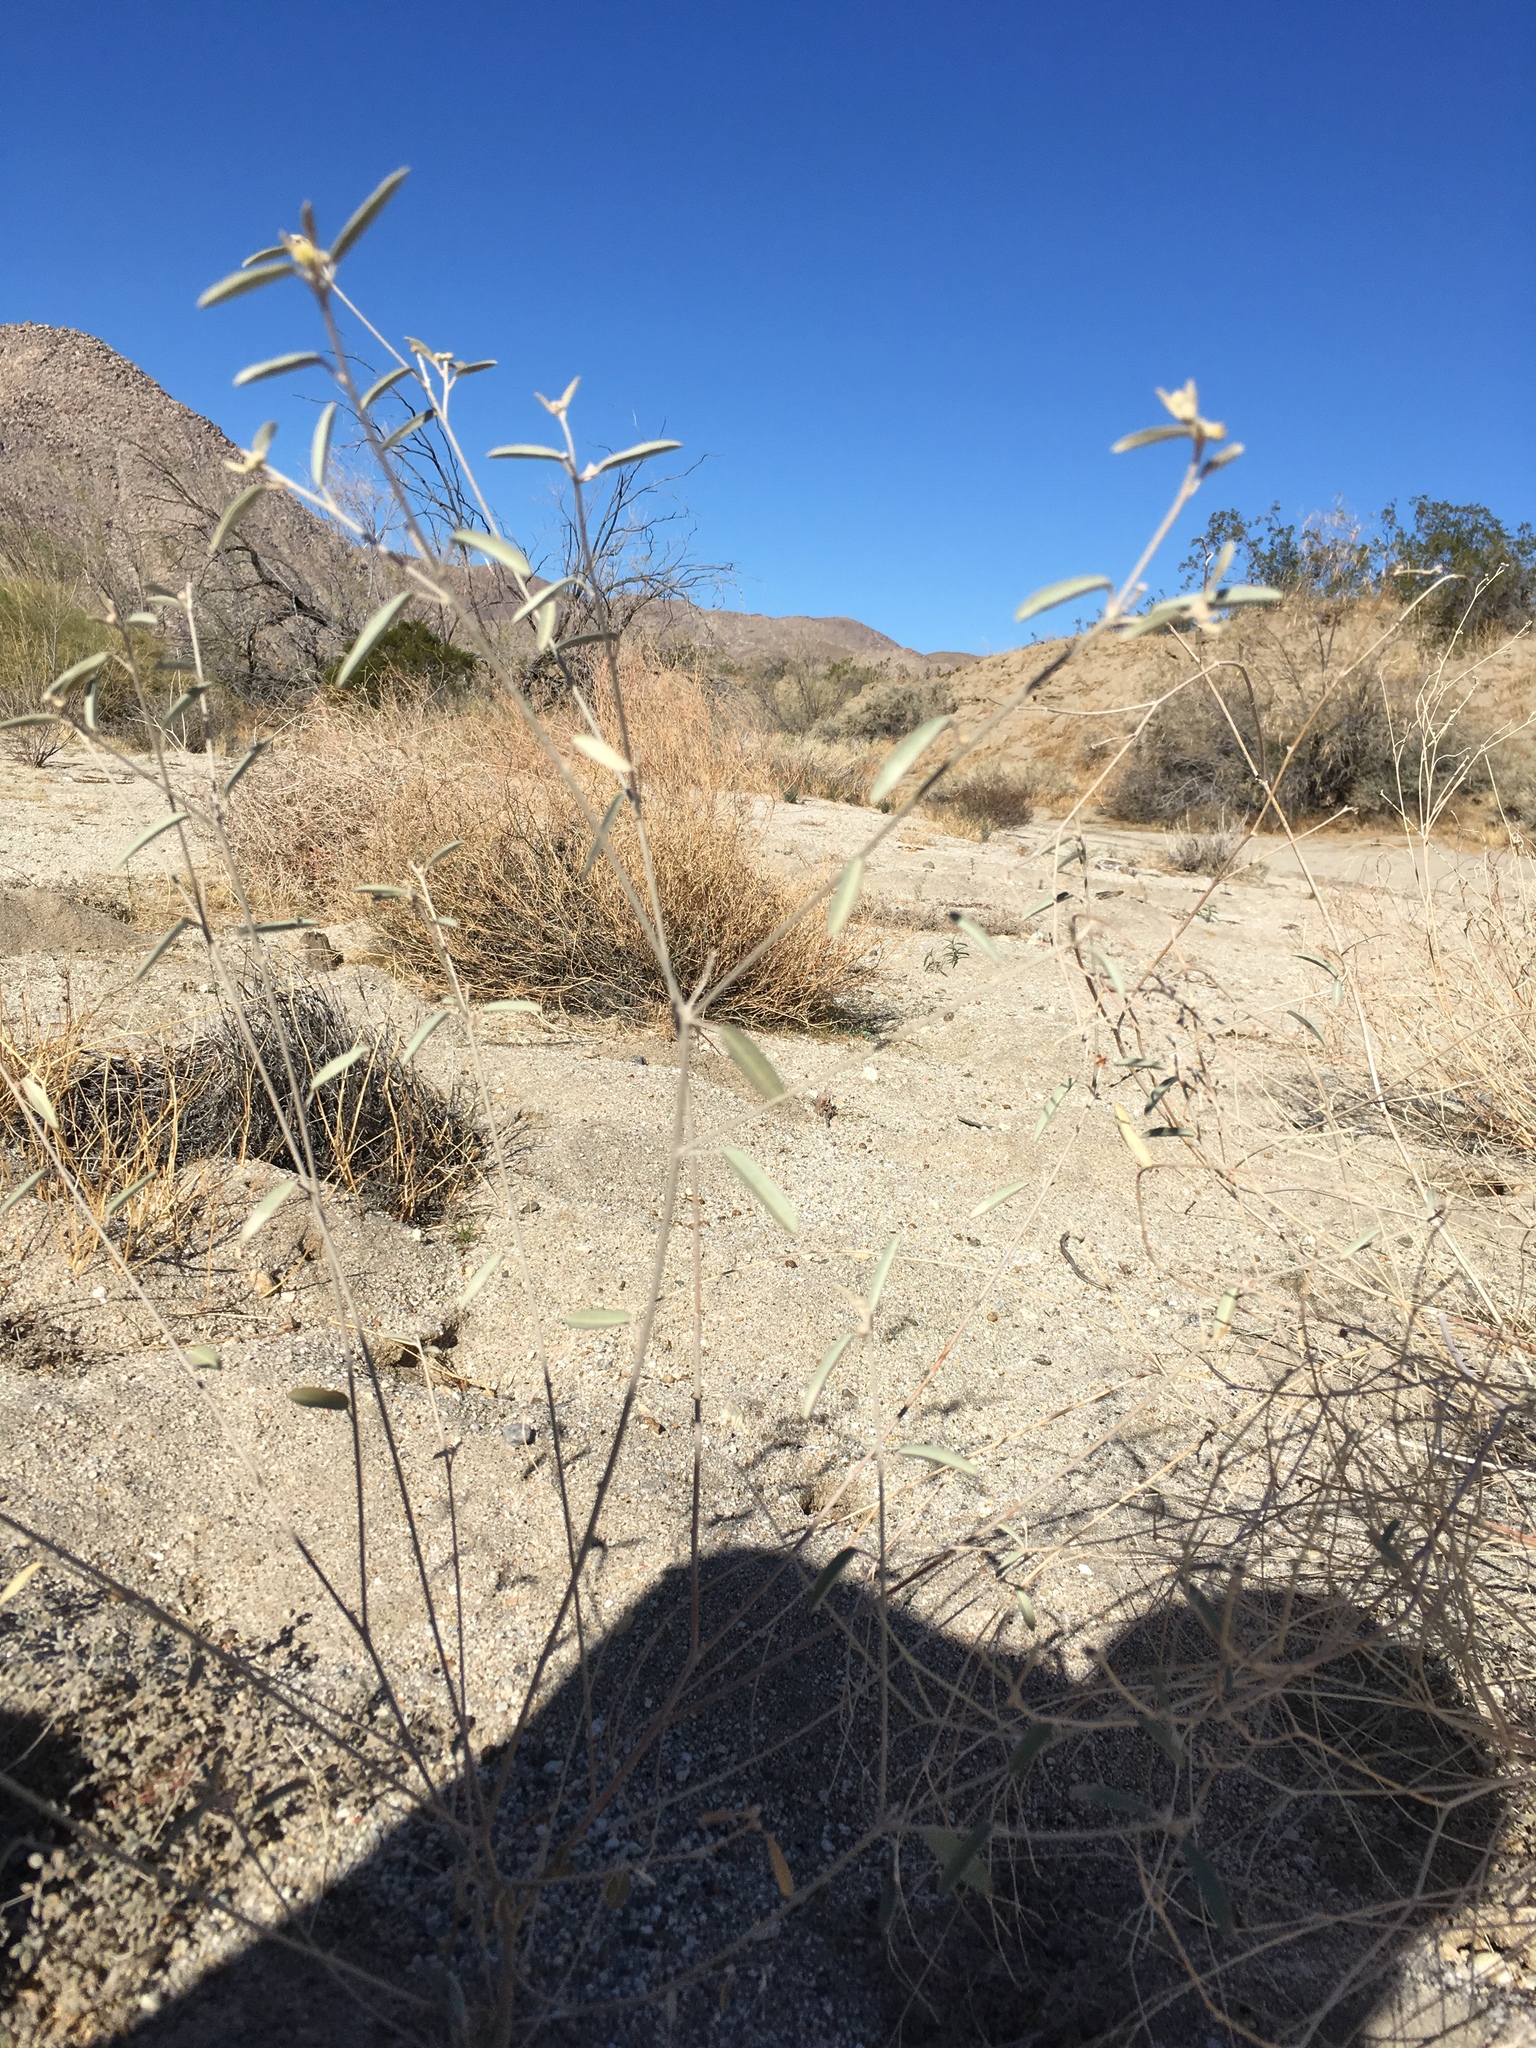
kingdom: Plantae
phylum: Tracheophyta
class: Magnoliopsida
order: Malpighiales
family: Euphorbiaceae
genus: Croton
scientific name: Croton californicus
